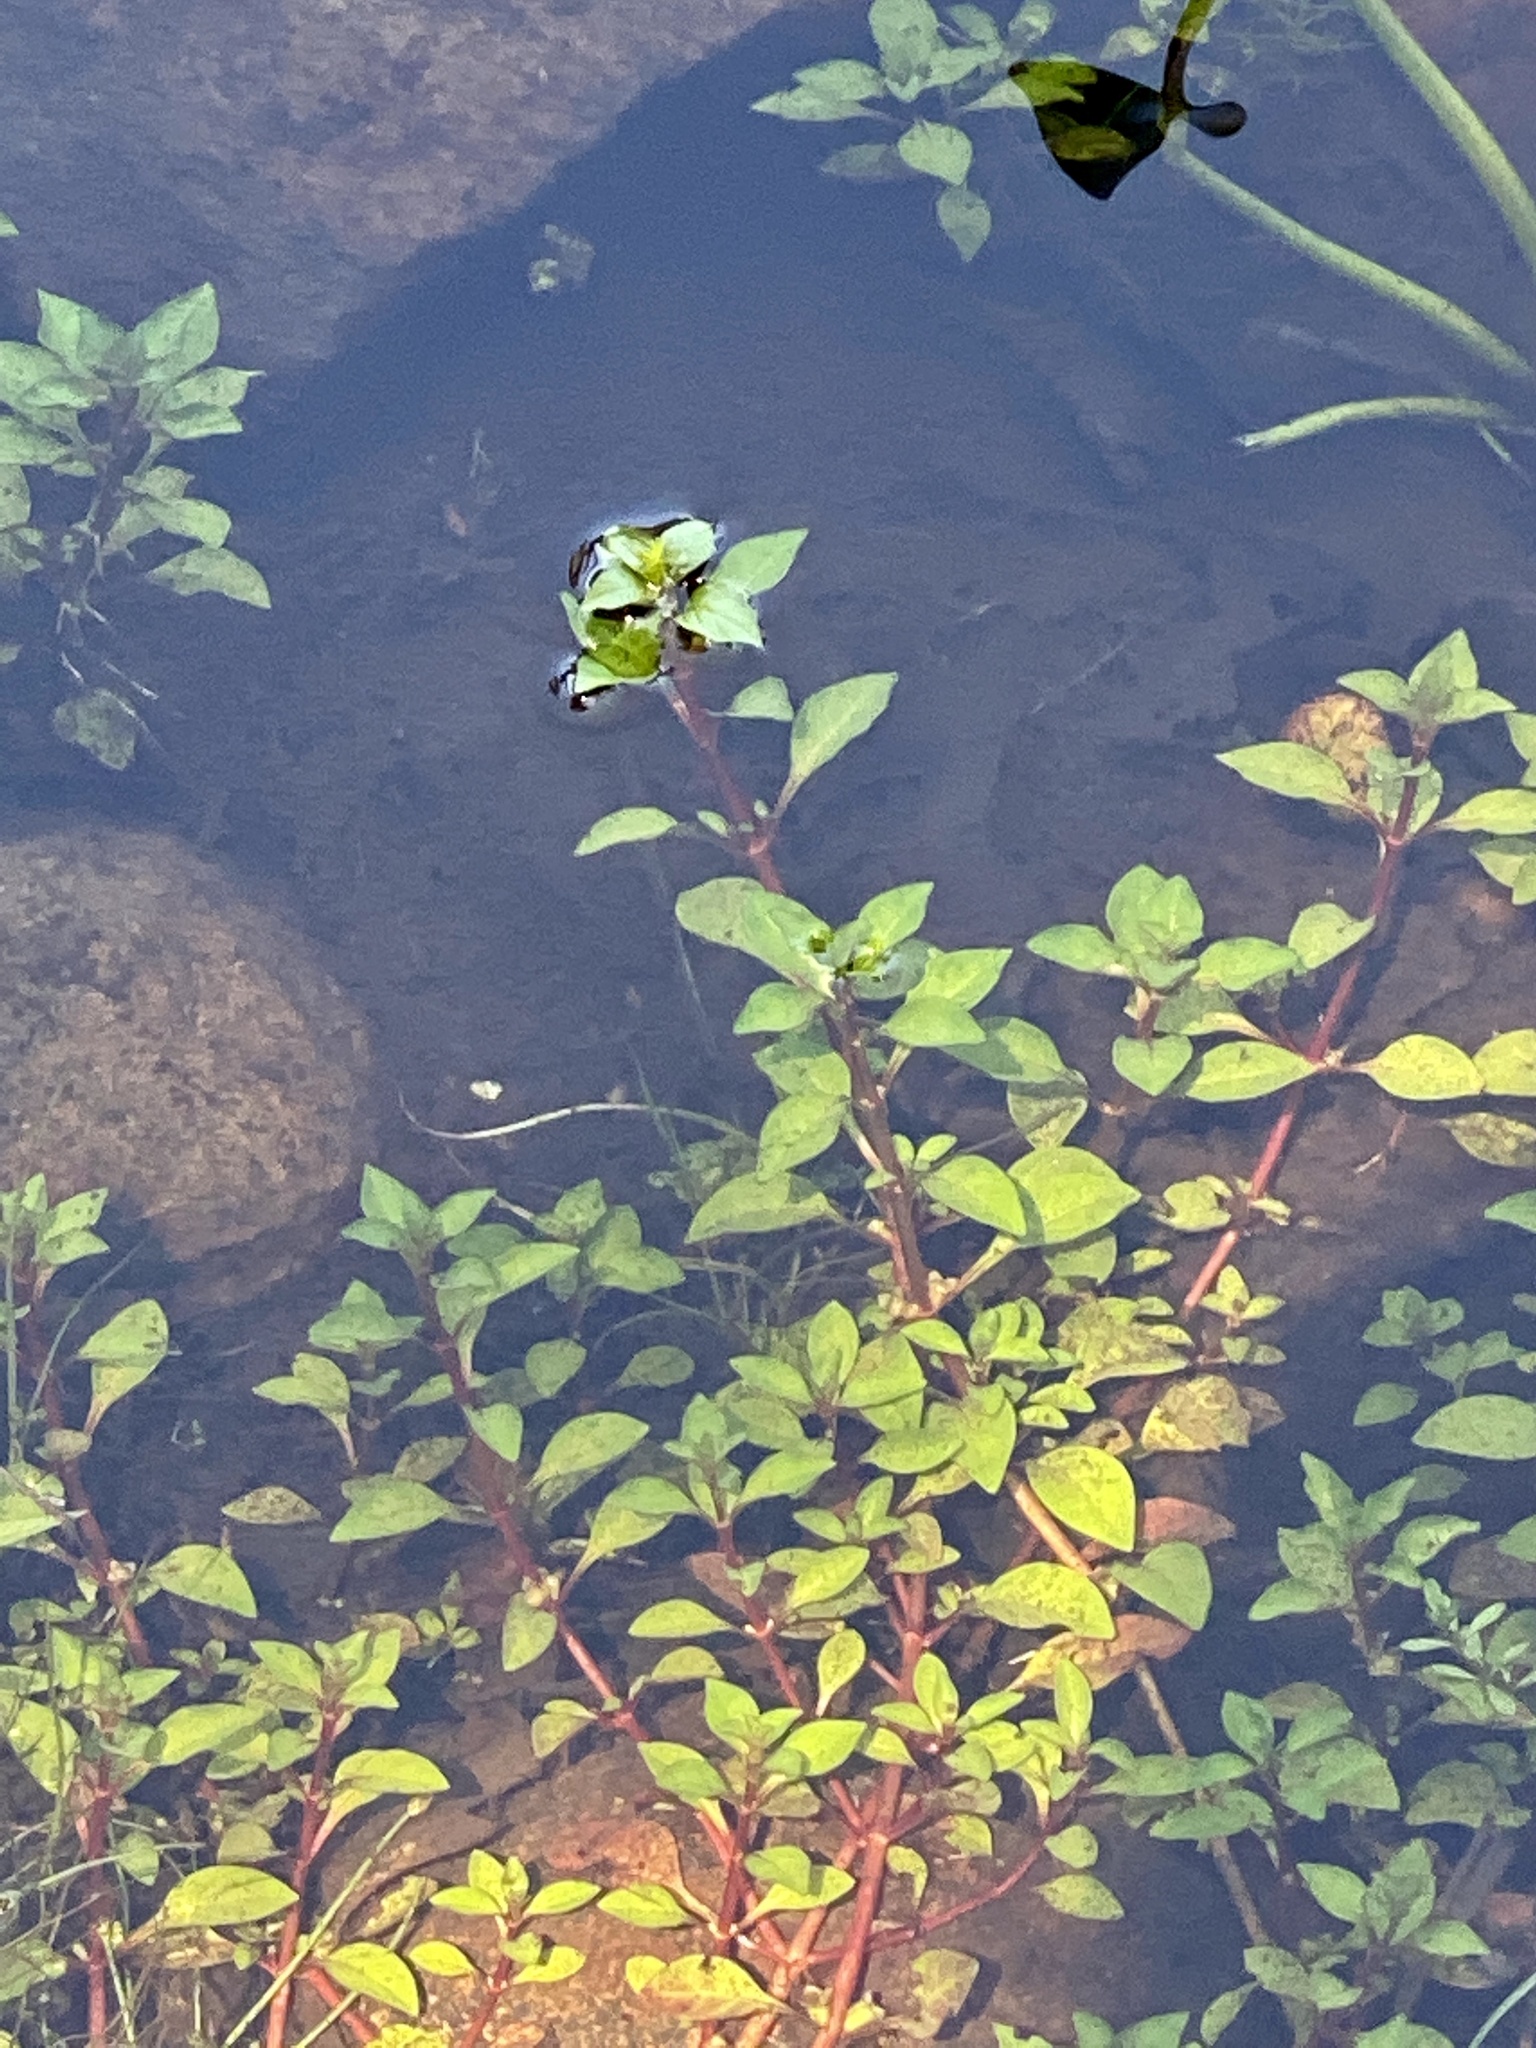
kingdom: Plantae
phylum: Tracheophyta
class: Magnoliopsida
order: Myrtales
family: Onagraceae
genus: Ludwigia
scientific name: Ludwigia palustris
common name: Hampshire-purslane
